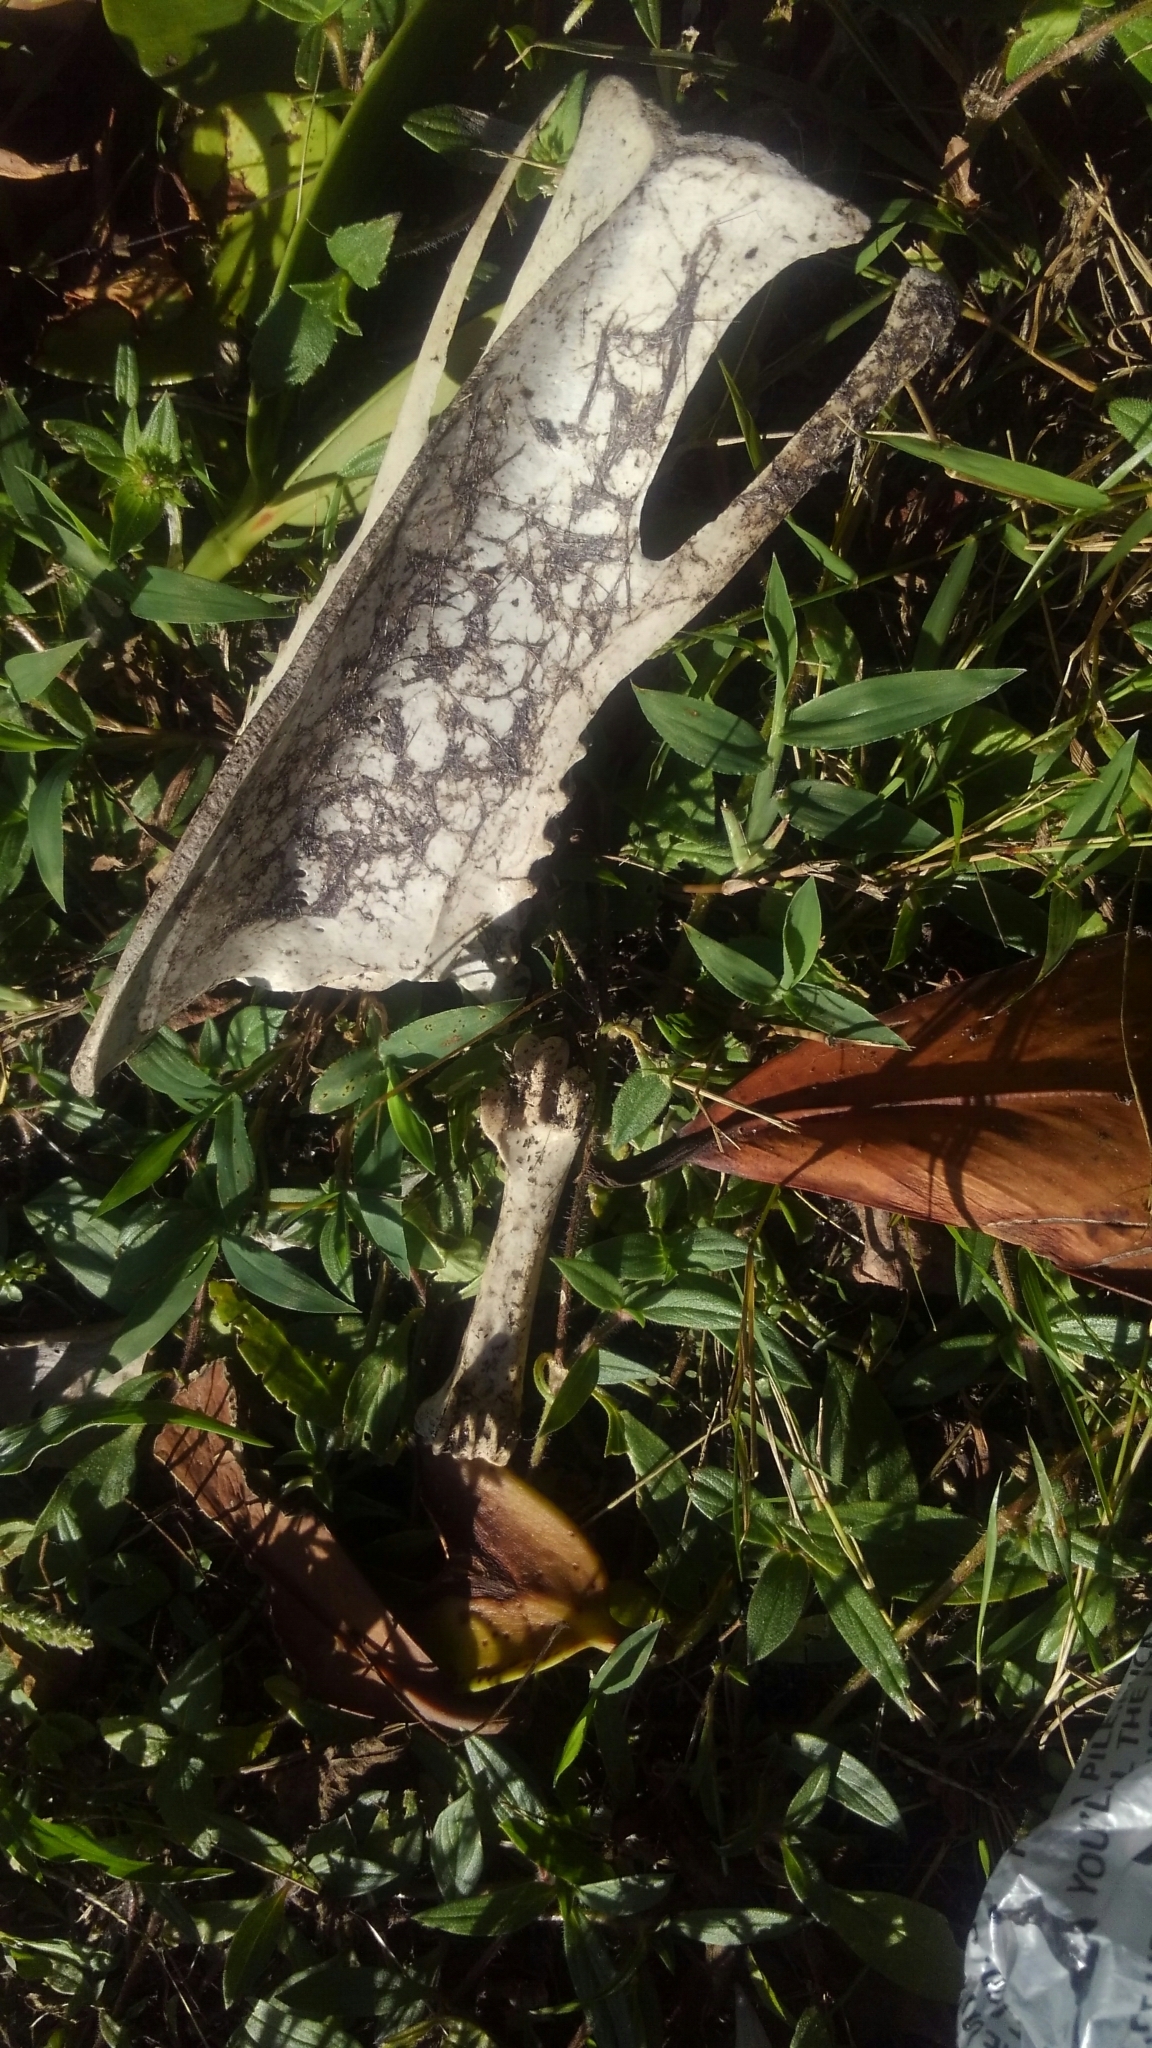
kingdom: Animalia
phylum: Chordata
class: Aves
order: Anseriformes
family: Anatidae
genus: Cairina
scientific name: Cairina moschata
